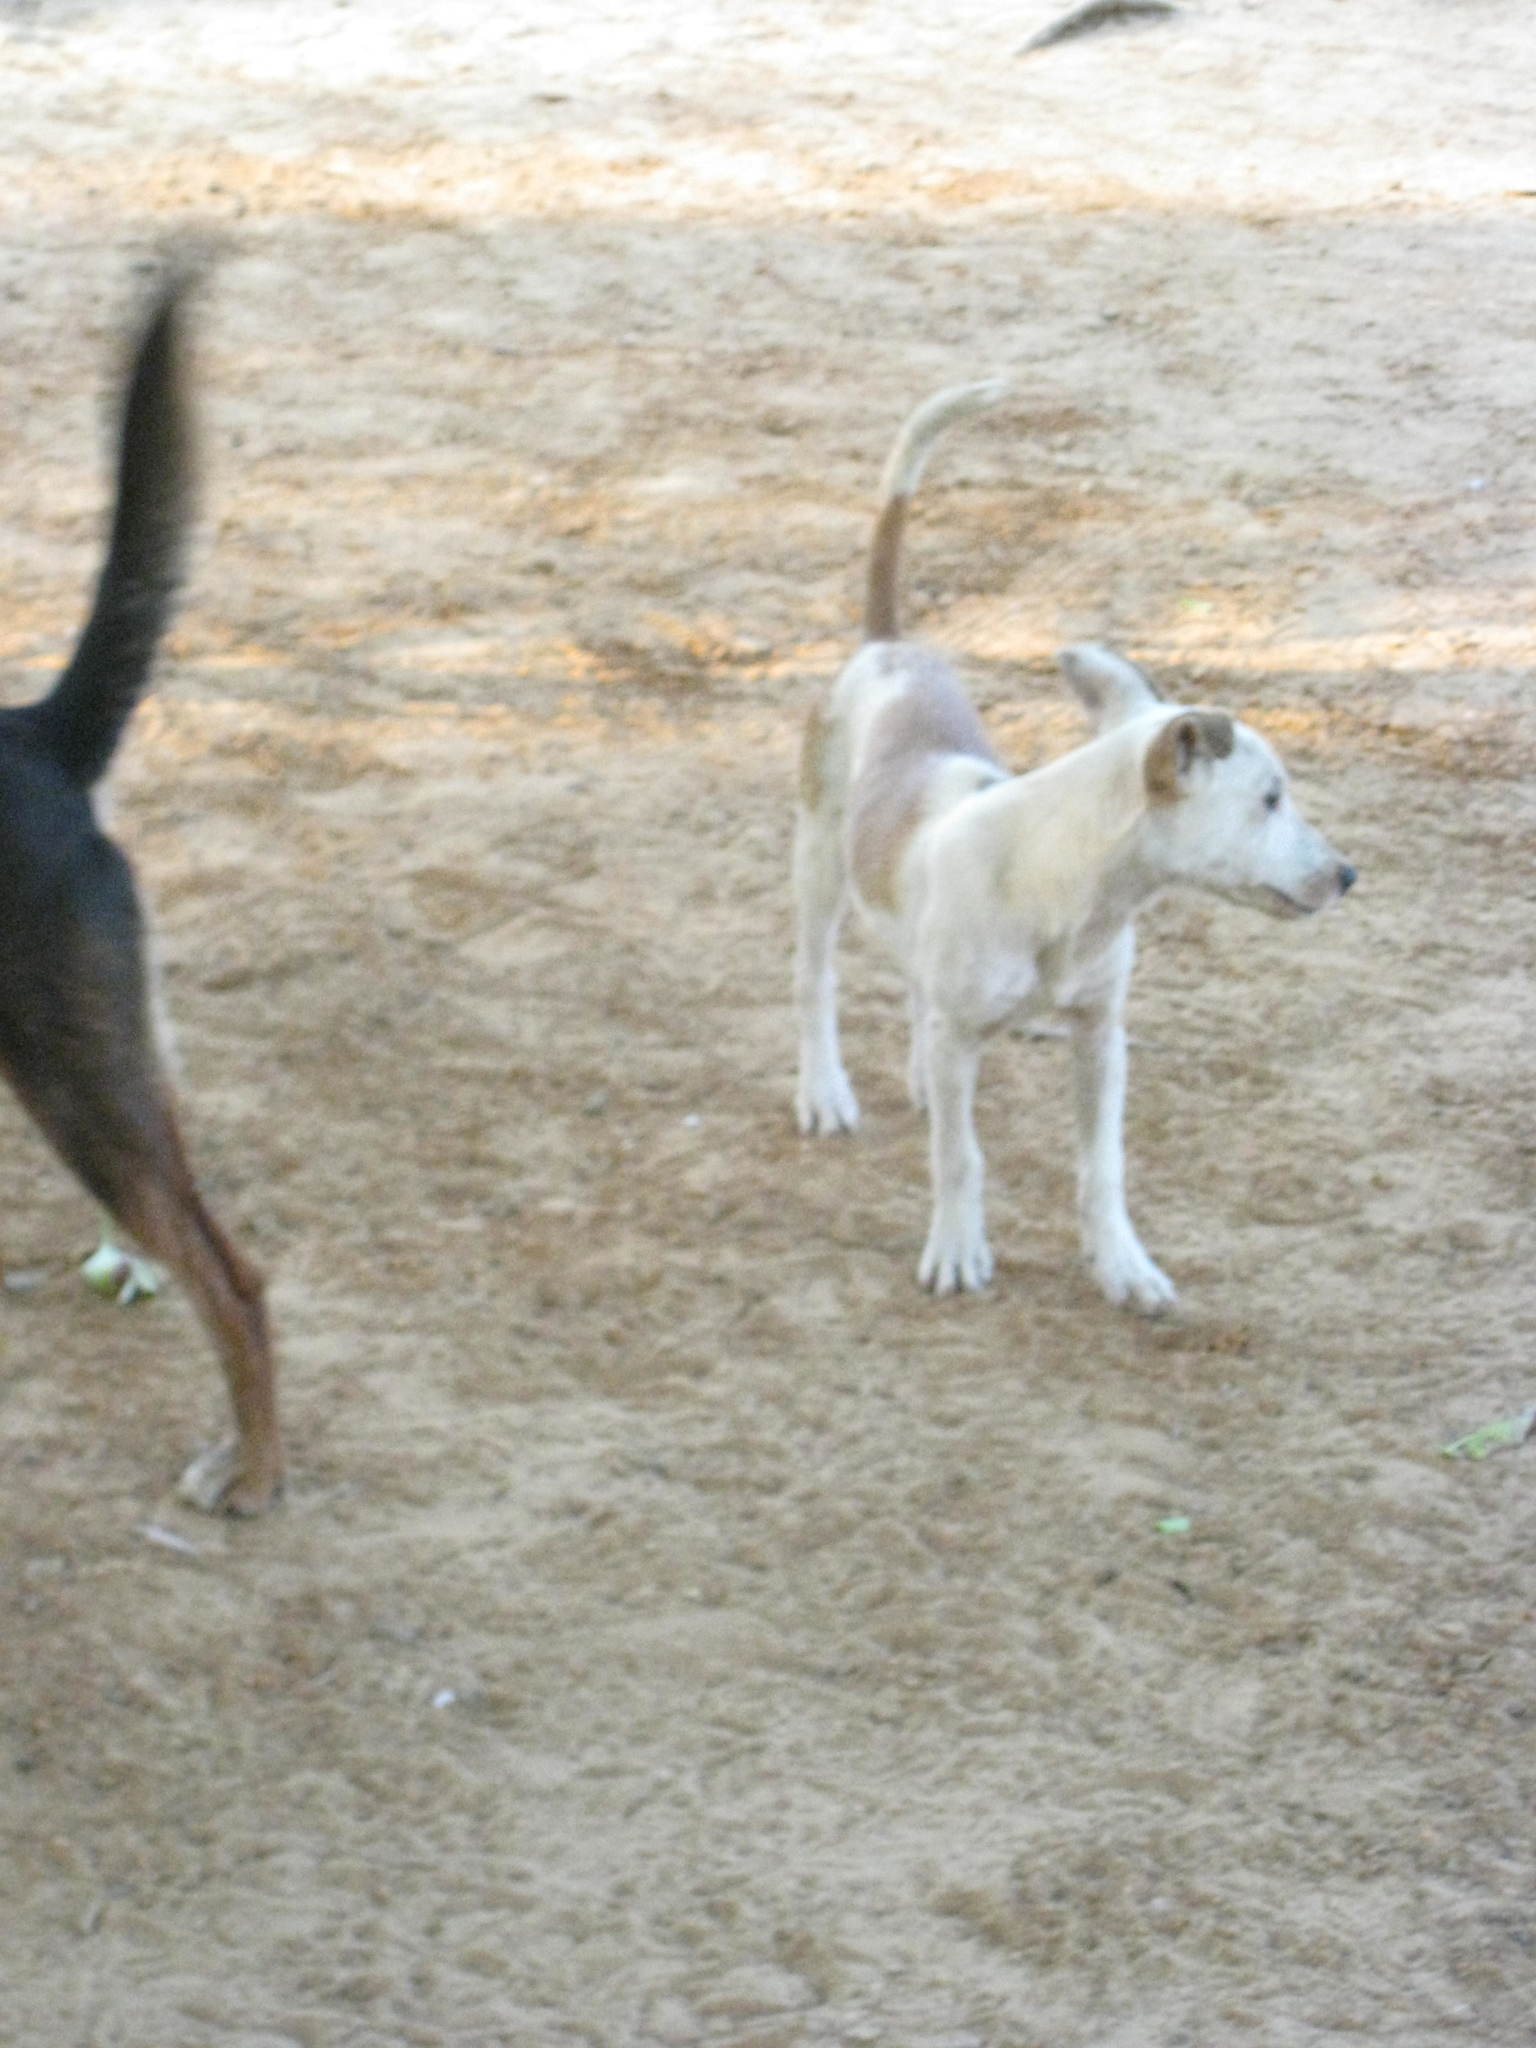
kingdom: Animalia
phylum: Chordata
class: Mammalia
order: Carnivora
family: Canidae
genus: Canis
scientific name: Canis lupus
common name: Gray wolf
